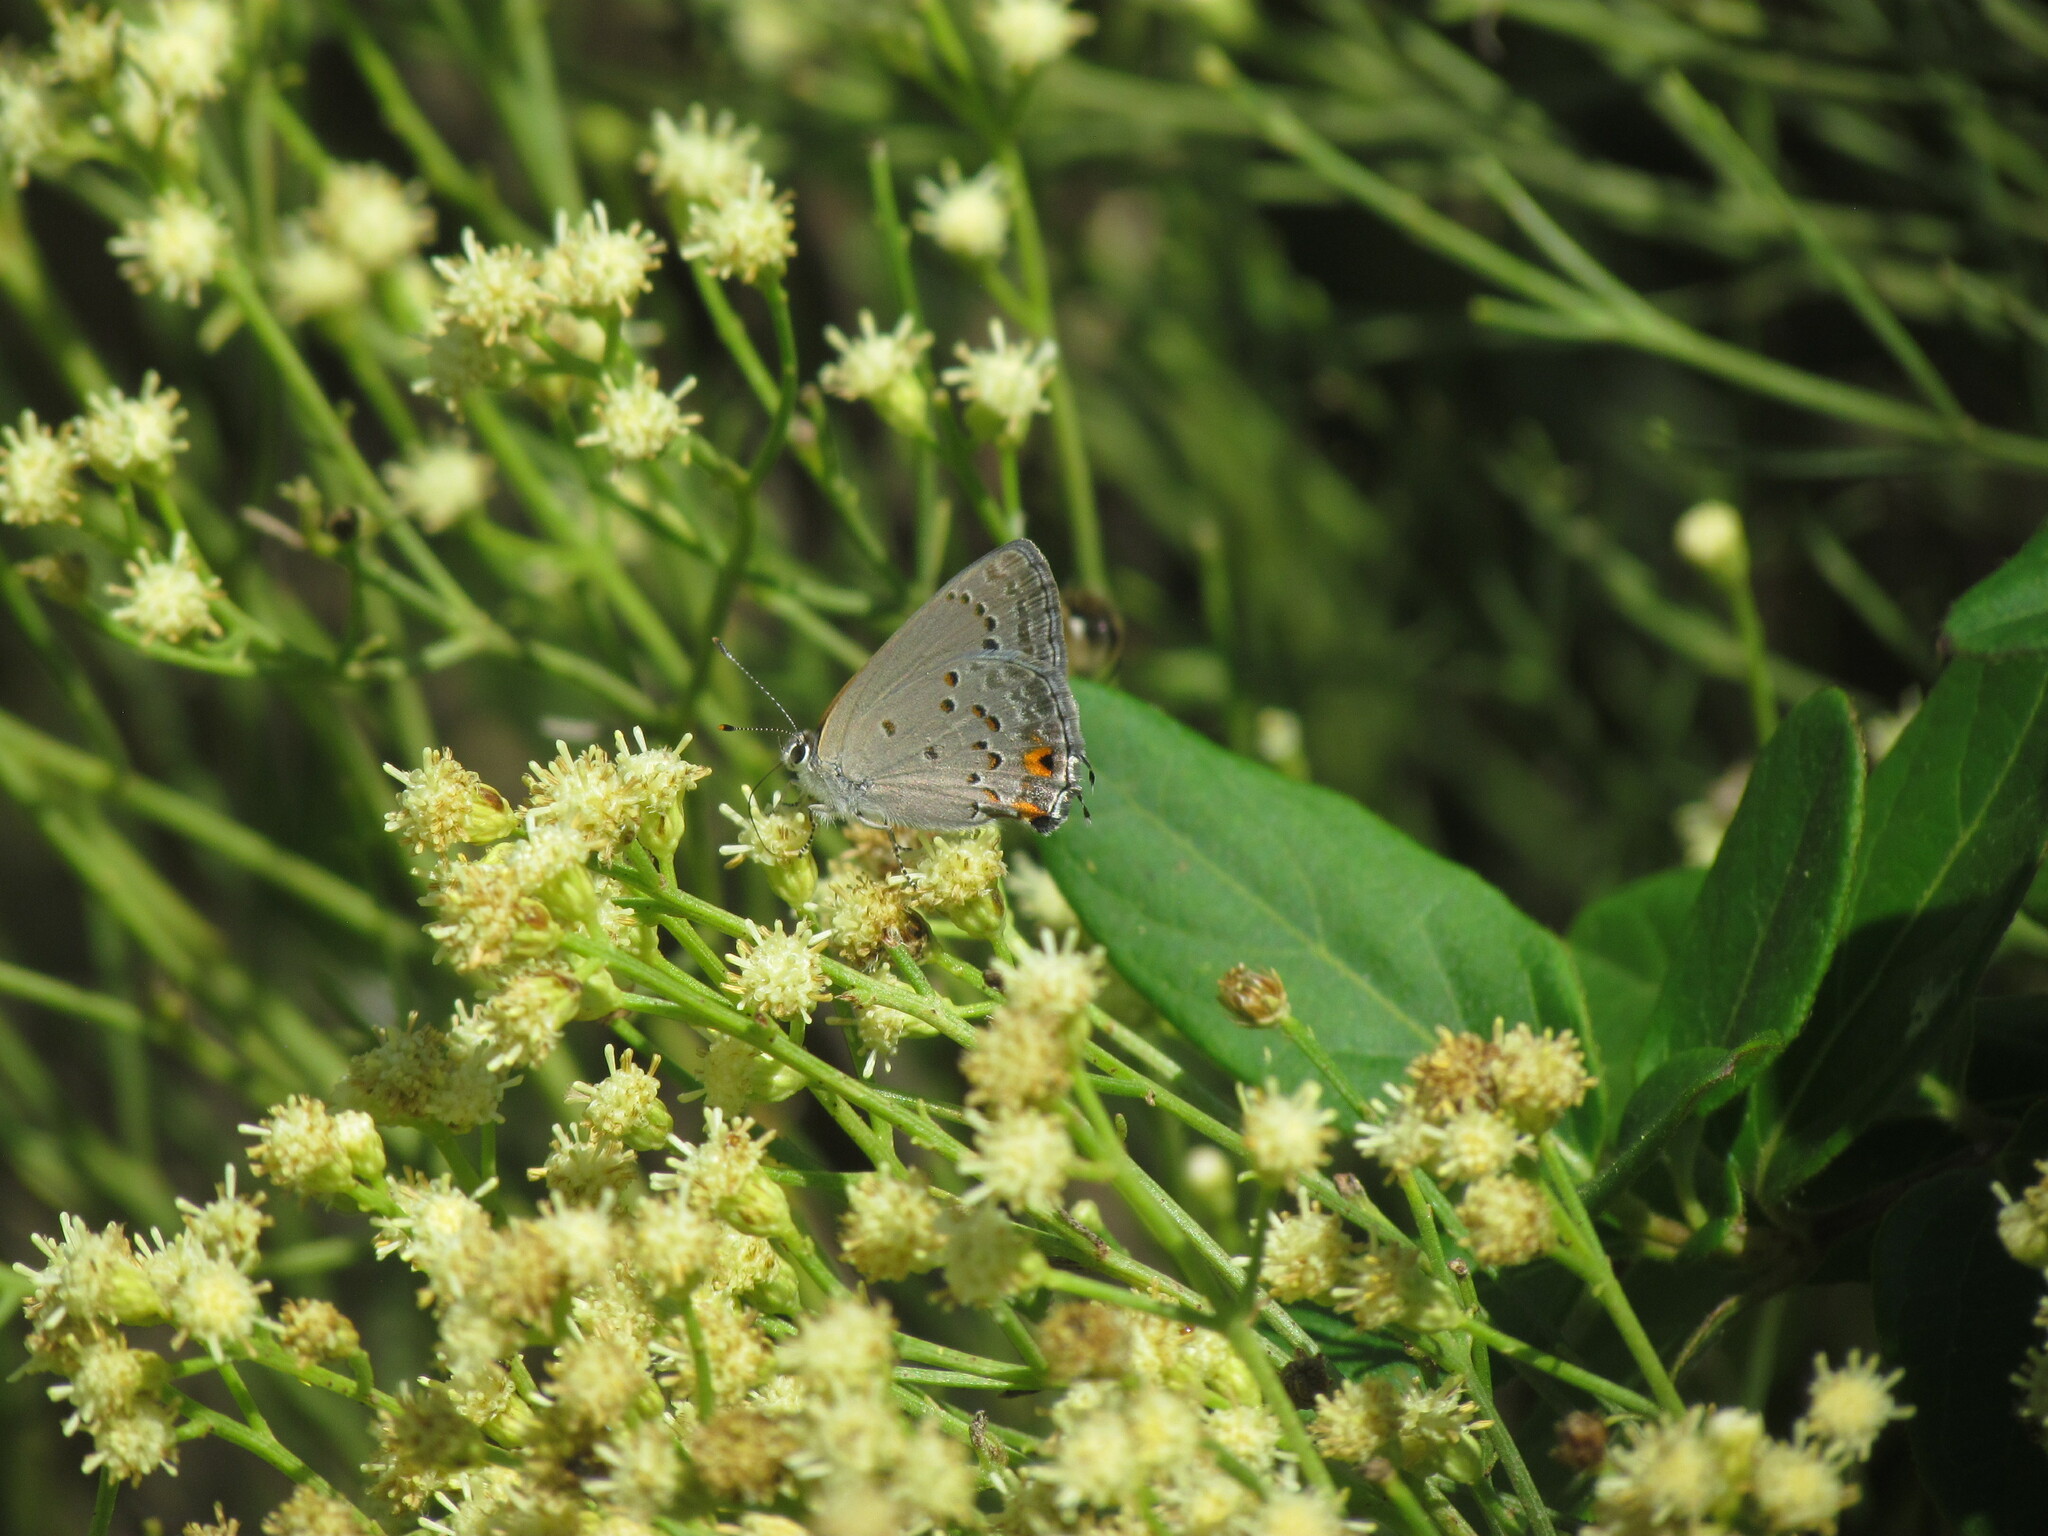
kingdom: Animalia
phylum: Arthropoda
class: Insecta
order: Lepidoptera
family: Lycaenidae
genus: Strymon
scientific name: Strymon eurytulus
